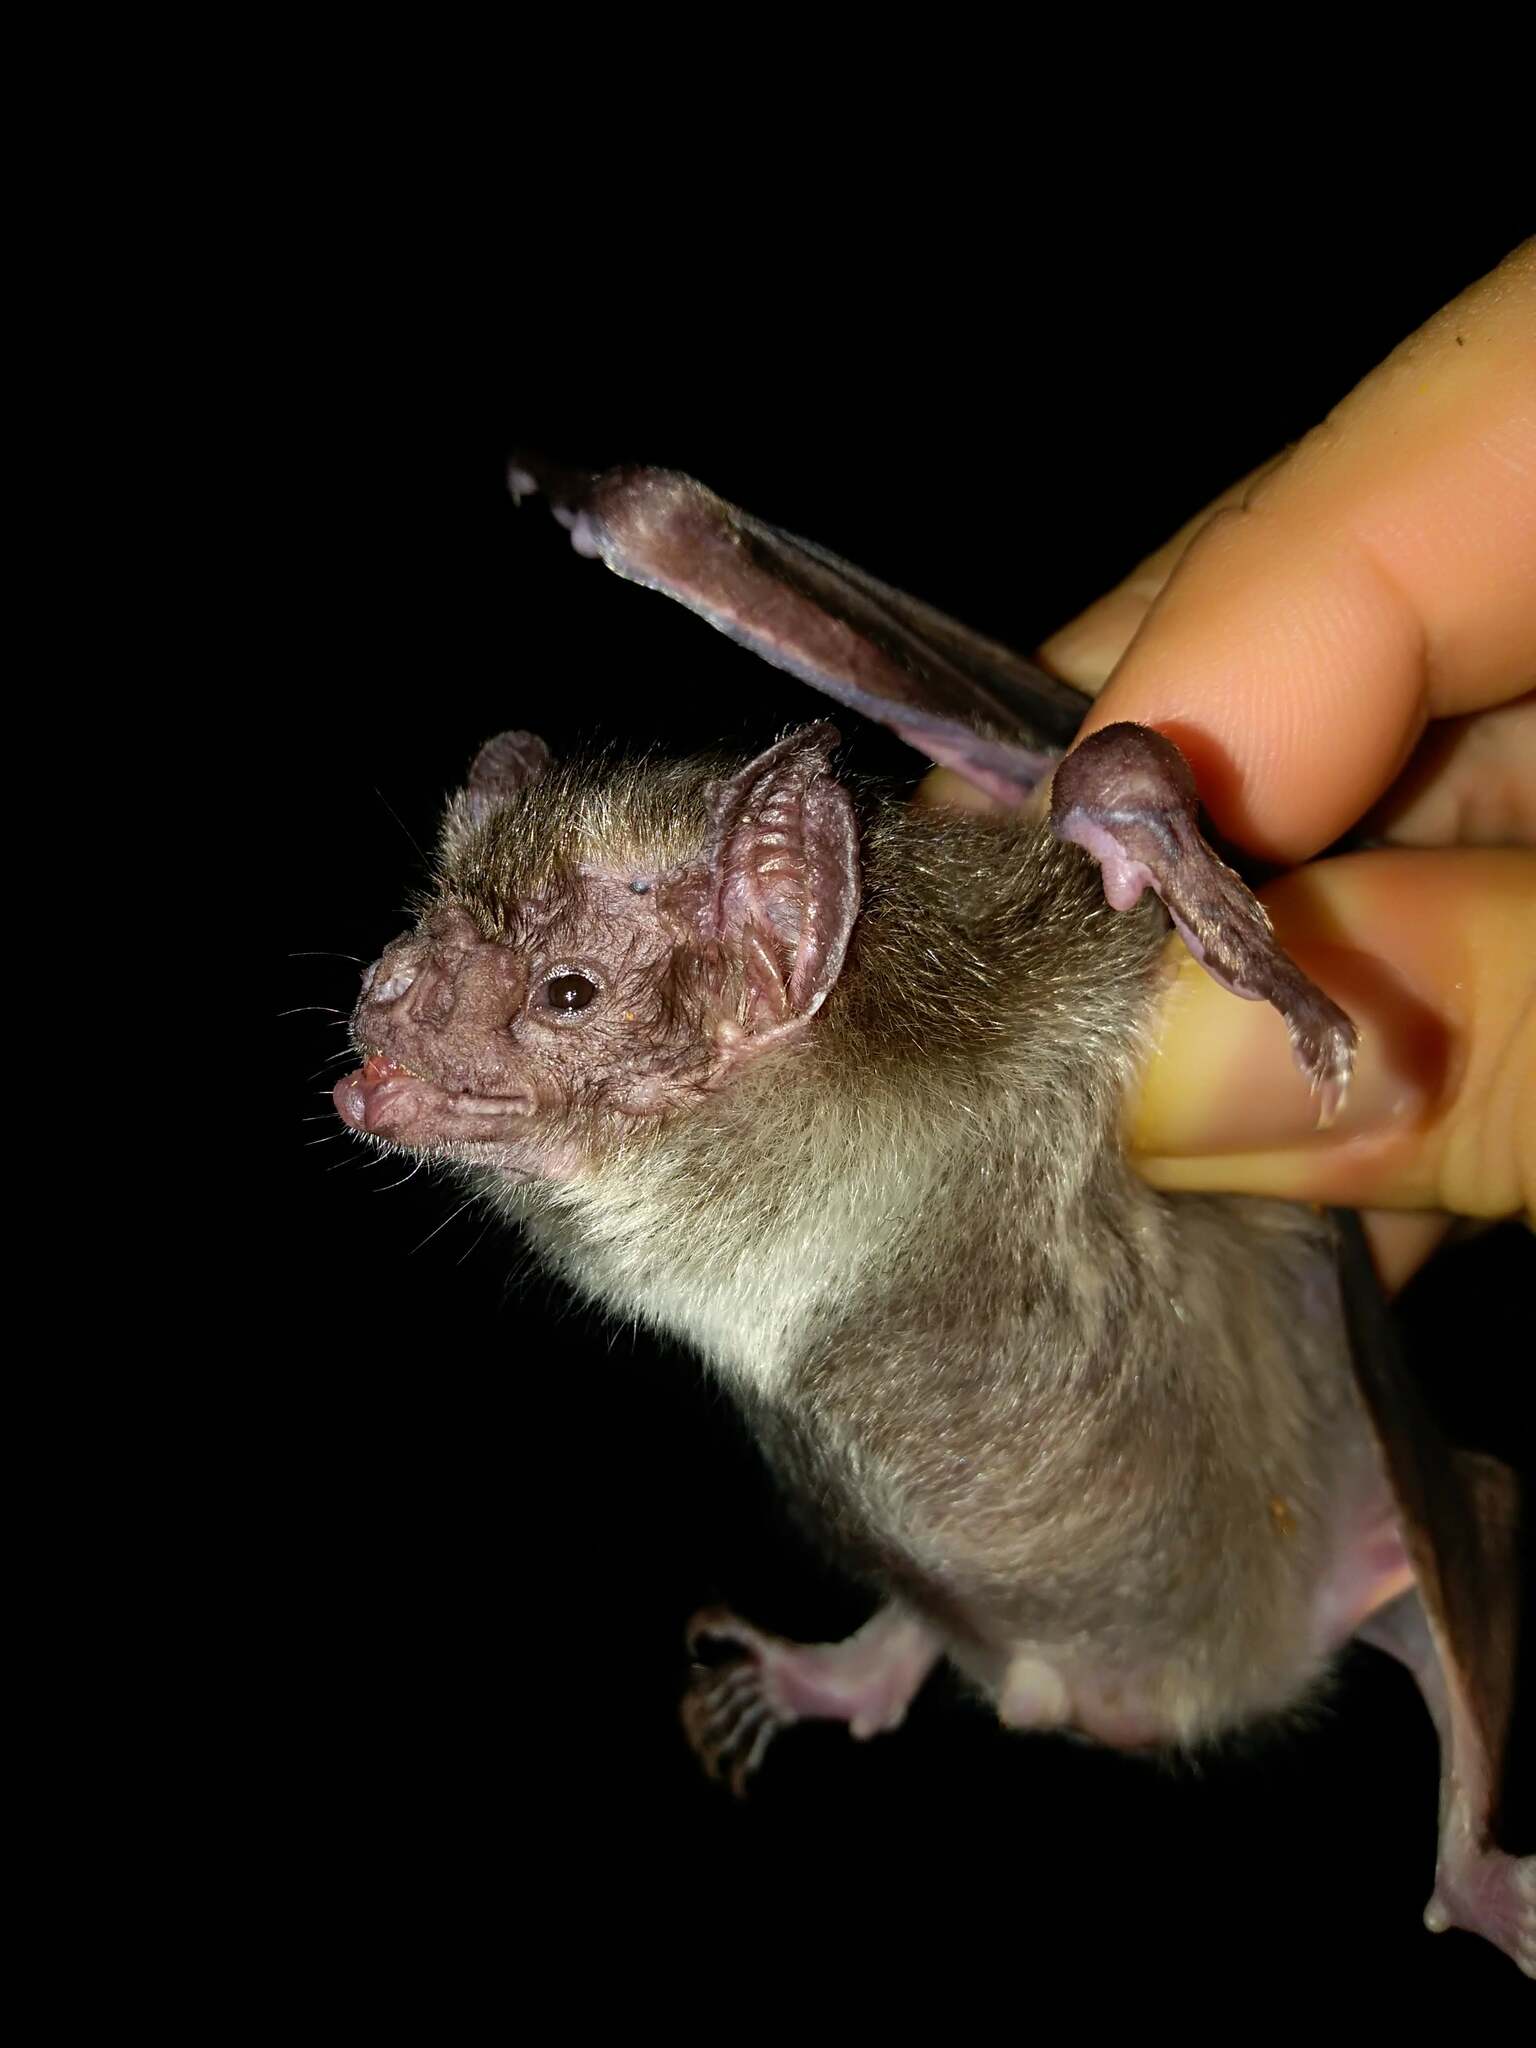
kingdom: Animalia
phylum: Chordata
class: Mammalia
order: Chiroptera
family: Phyllostomidae
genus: Desmodus
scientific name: Desmodus rotundus
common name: Common vampire bat
